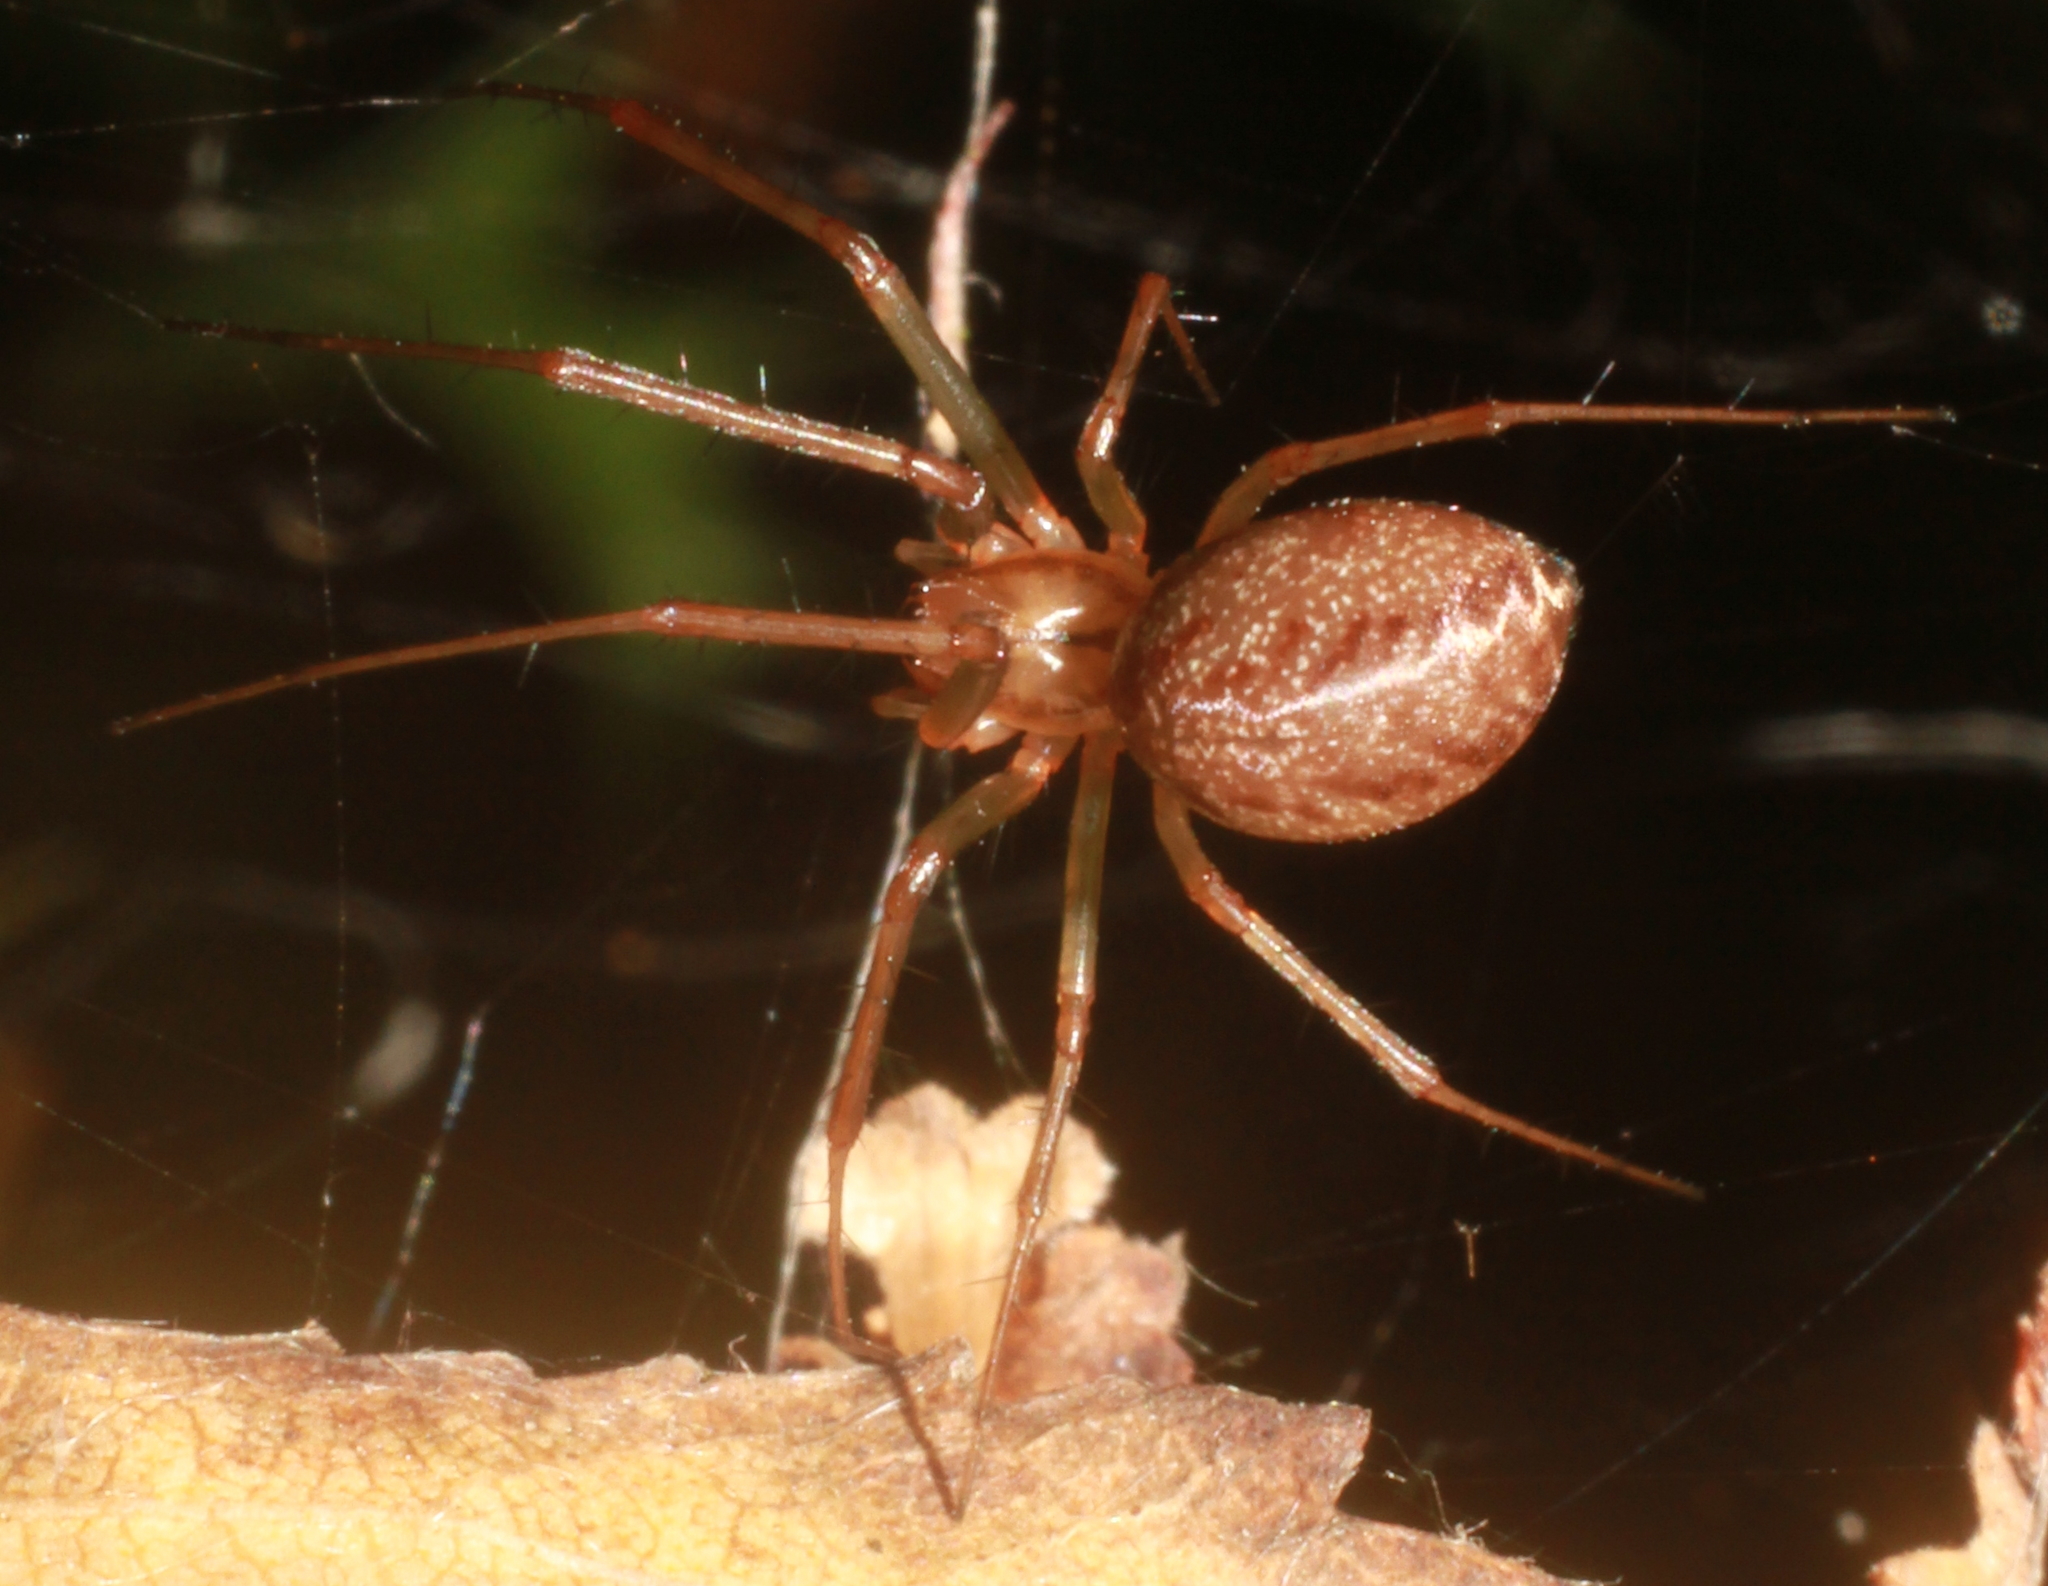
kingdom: Animalia
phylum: Arthropoda
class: Arachnida
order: Araneae
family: Linyphiidae
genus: Linyphia
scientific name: Linyphia triangularis
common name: Money spider
